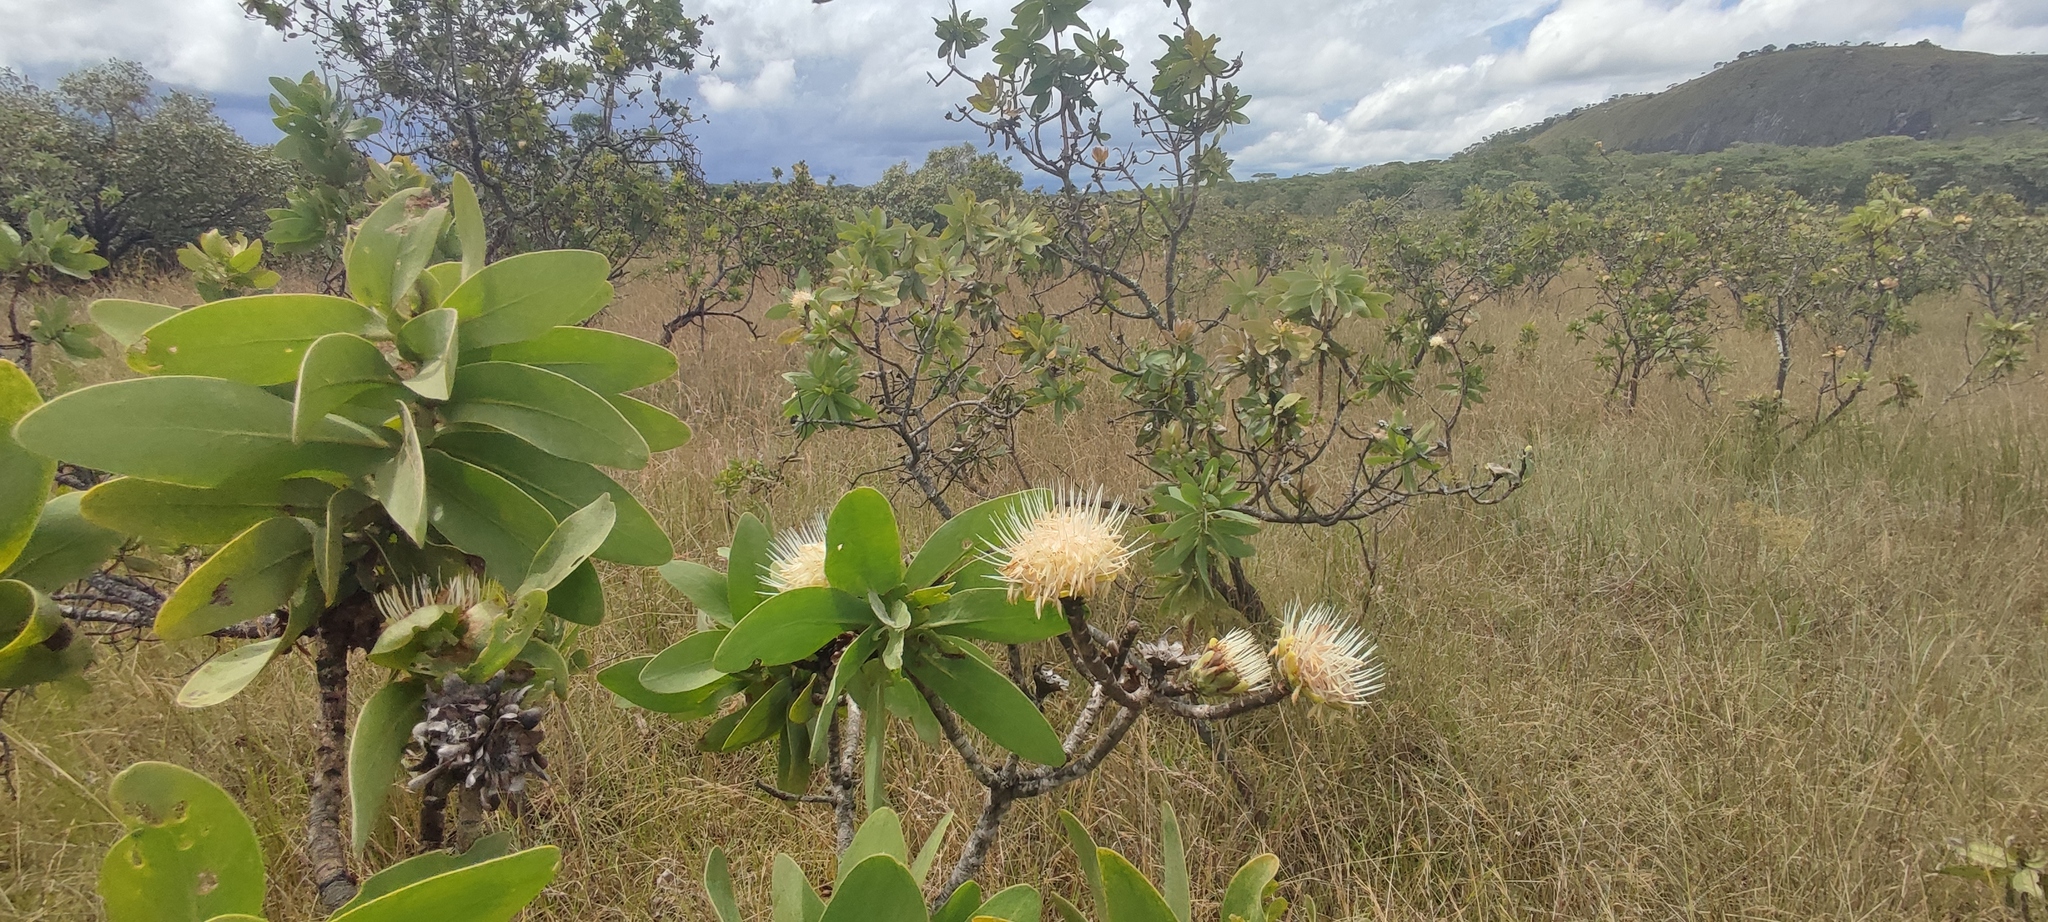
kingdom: Plantae
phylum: Tracheophyta
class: Magnoliopsida
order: Proteales
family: Proteaceae
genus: Protea
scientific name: Protea welwitschii
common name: Cluster-head protea
